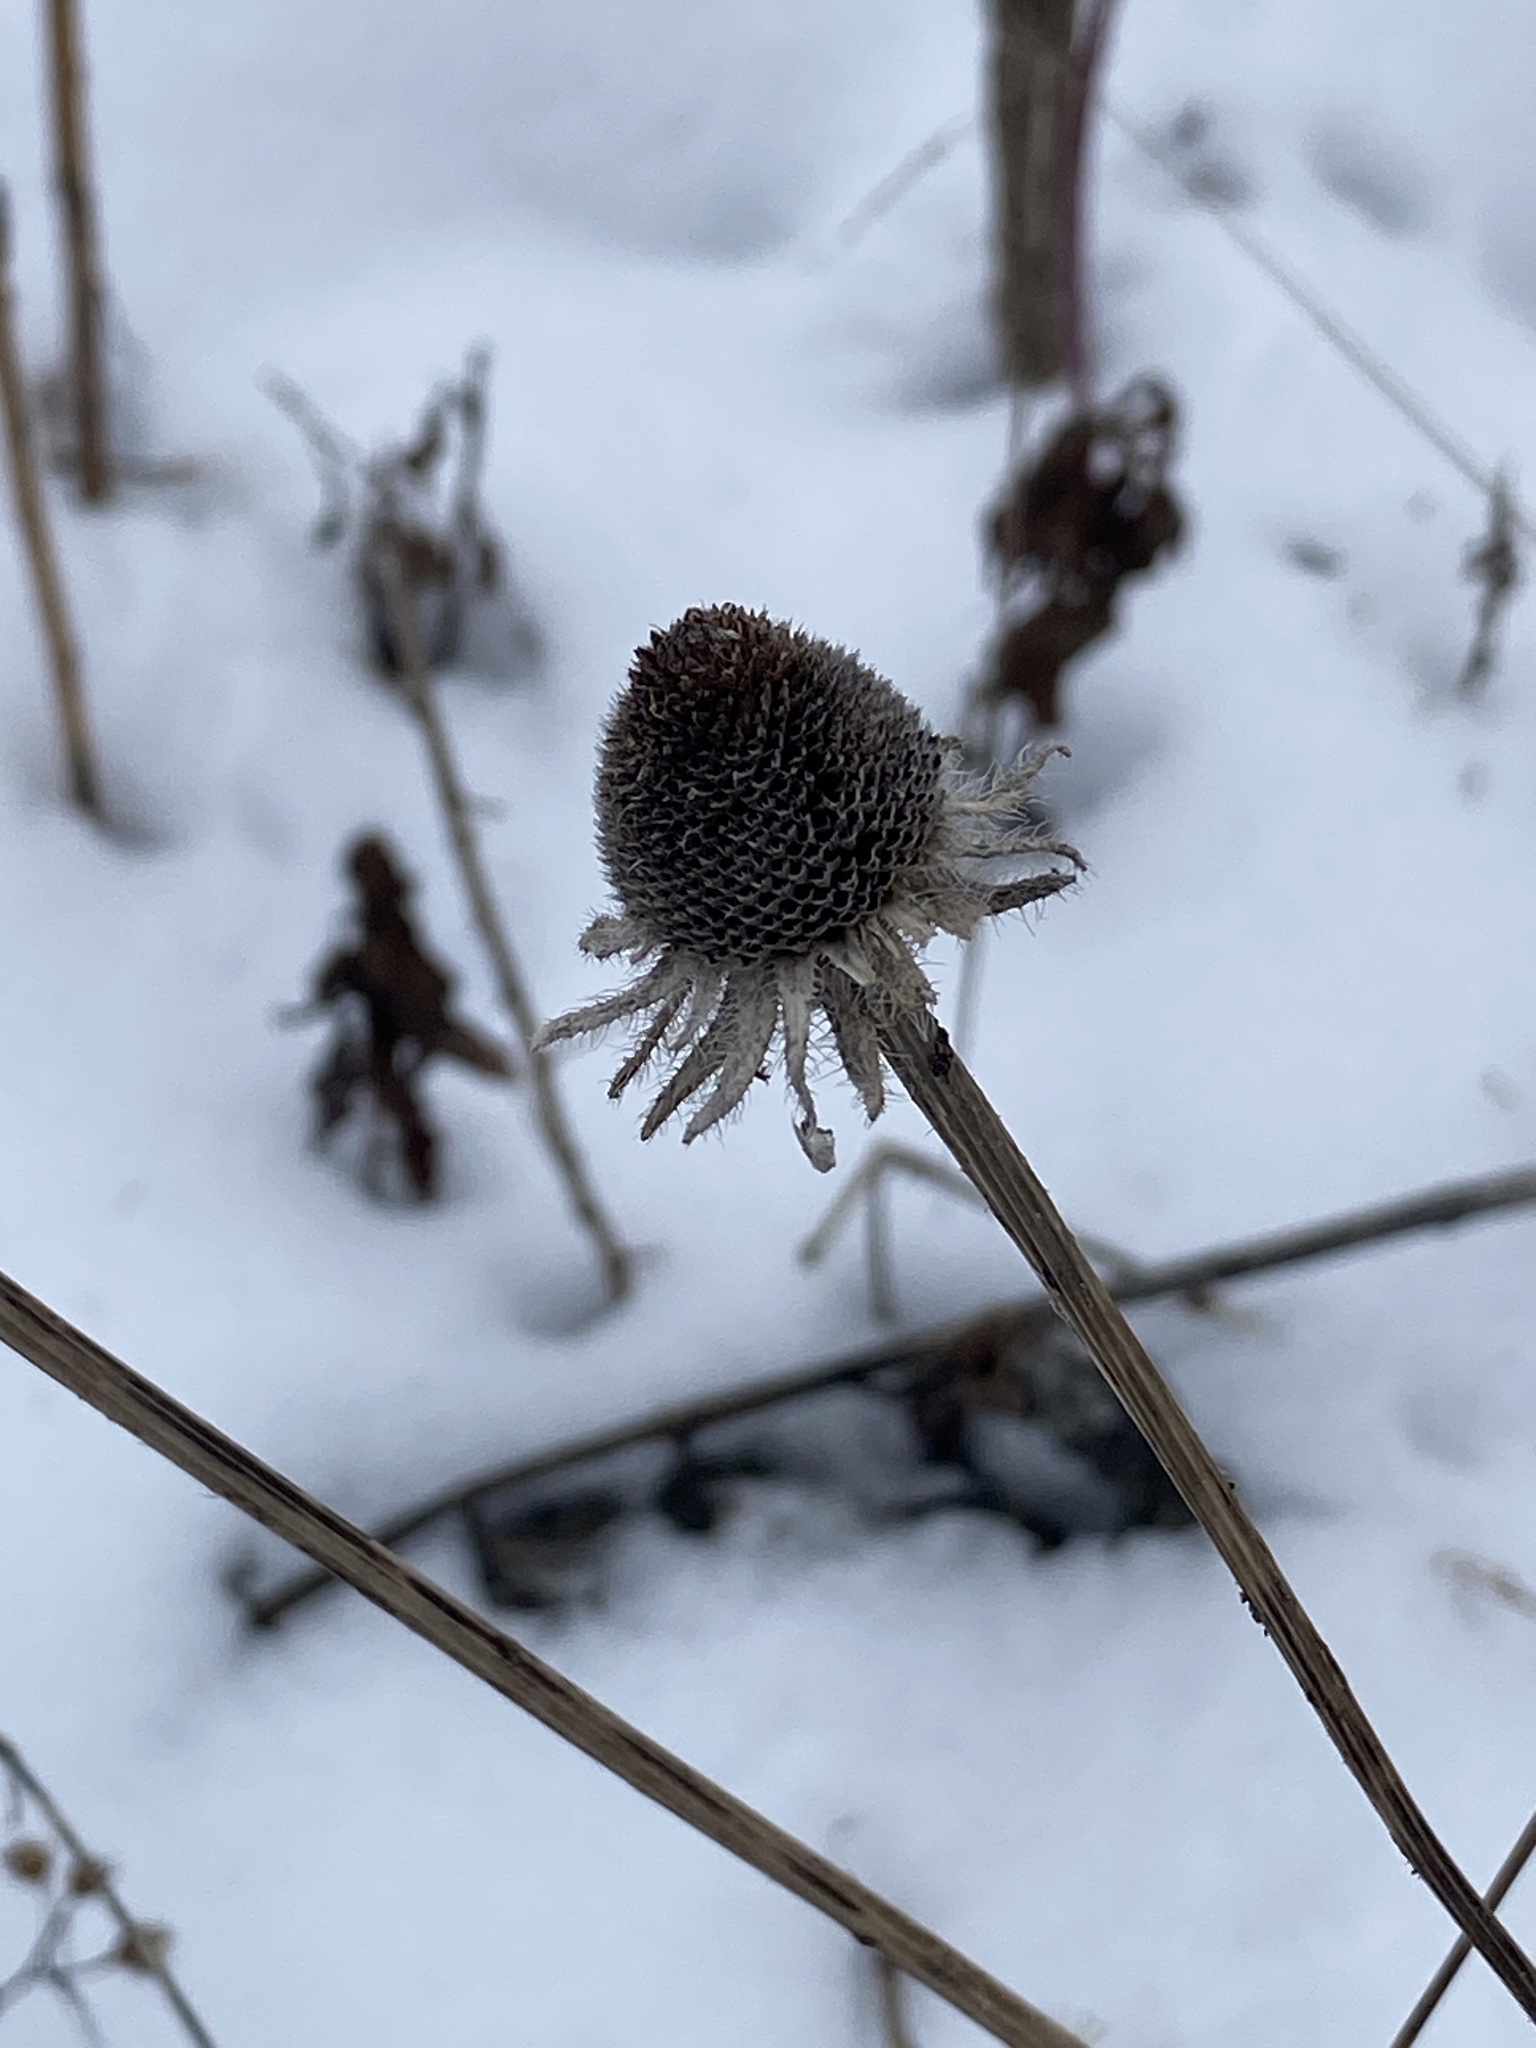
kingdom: Plantae
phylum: Tracheophyta
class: Magnoliopsida
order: Asterales
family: Asteraceae
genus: Rudbeckia
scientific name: Rudbeckia hirta
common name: Black-eyed-susan
